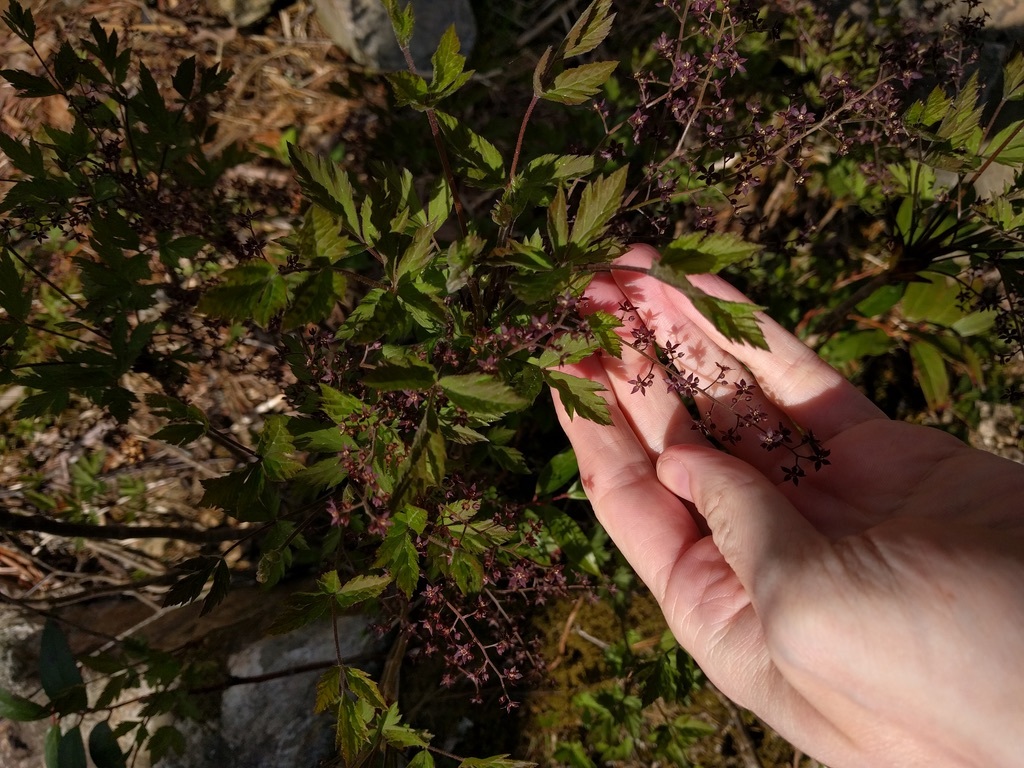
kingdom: Plantae
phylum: Tracheophyta
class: Magnoliopsida
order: Ranunculales
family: Ranunculaceae
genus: Xanthorhiza
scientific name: Xanthorhiza simplicissima
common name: Yellowroot
